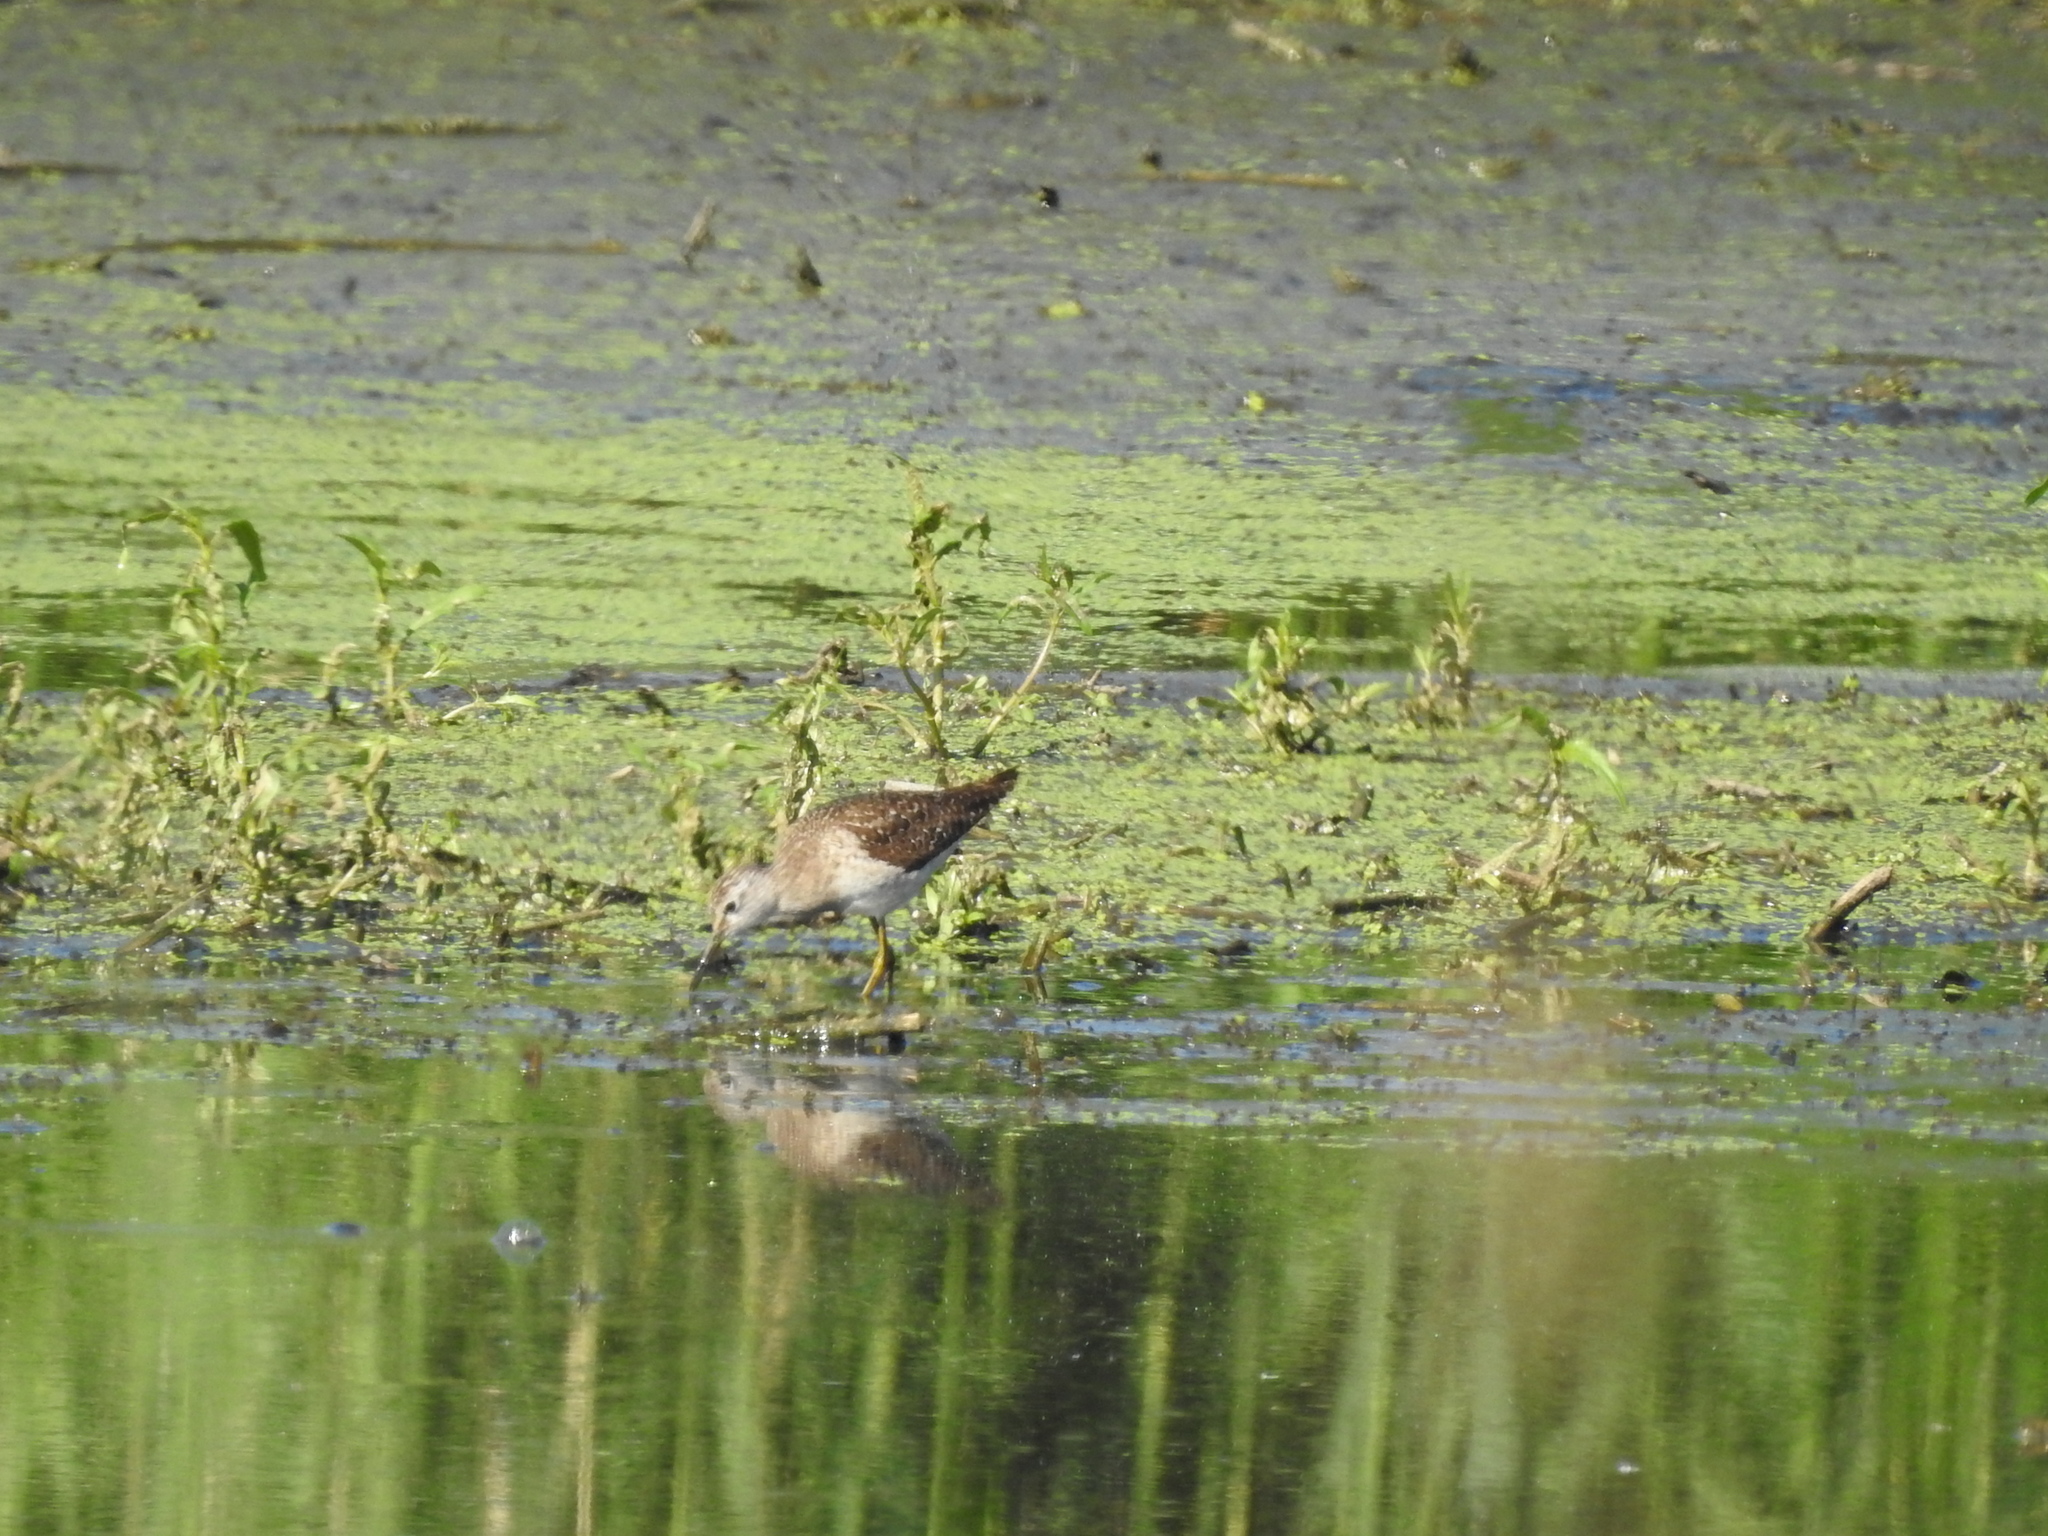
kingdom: Animalia
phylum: Chordata
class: Aves
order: Charadriiformes
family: Scolopacidae
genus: Tringa
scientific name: Tringa glareola
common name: Wood sandpiper
